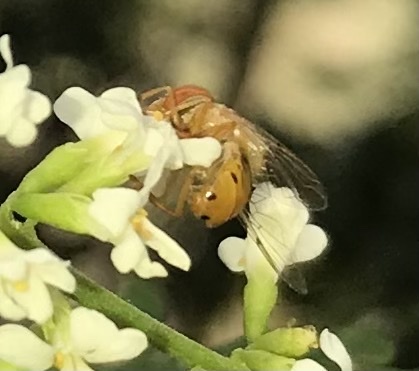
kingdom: Animalia
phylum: Arthropoda
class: Insecta
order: Diptera
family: Syrphidae
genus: Copestylum
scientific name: Copestylum sexmaculatum
